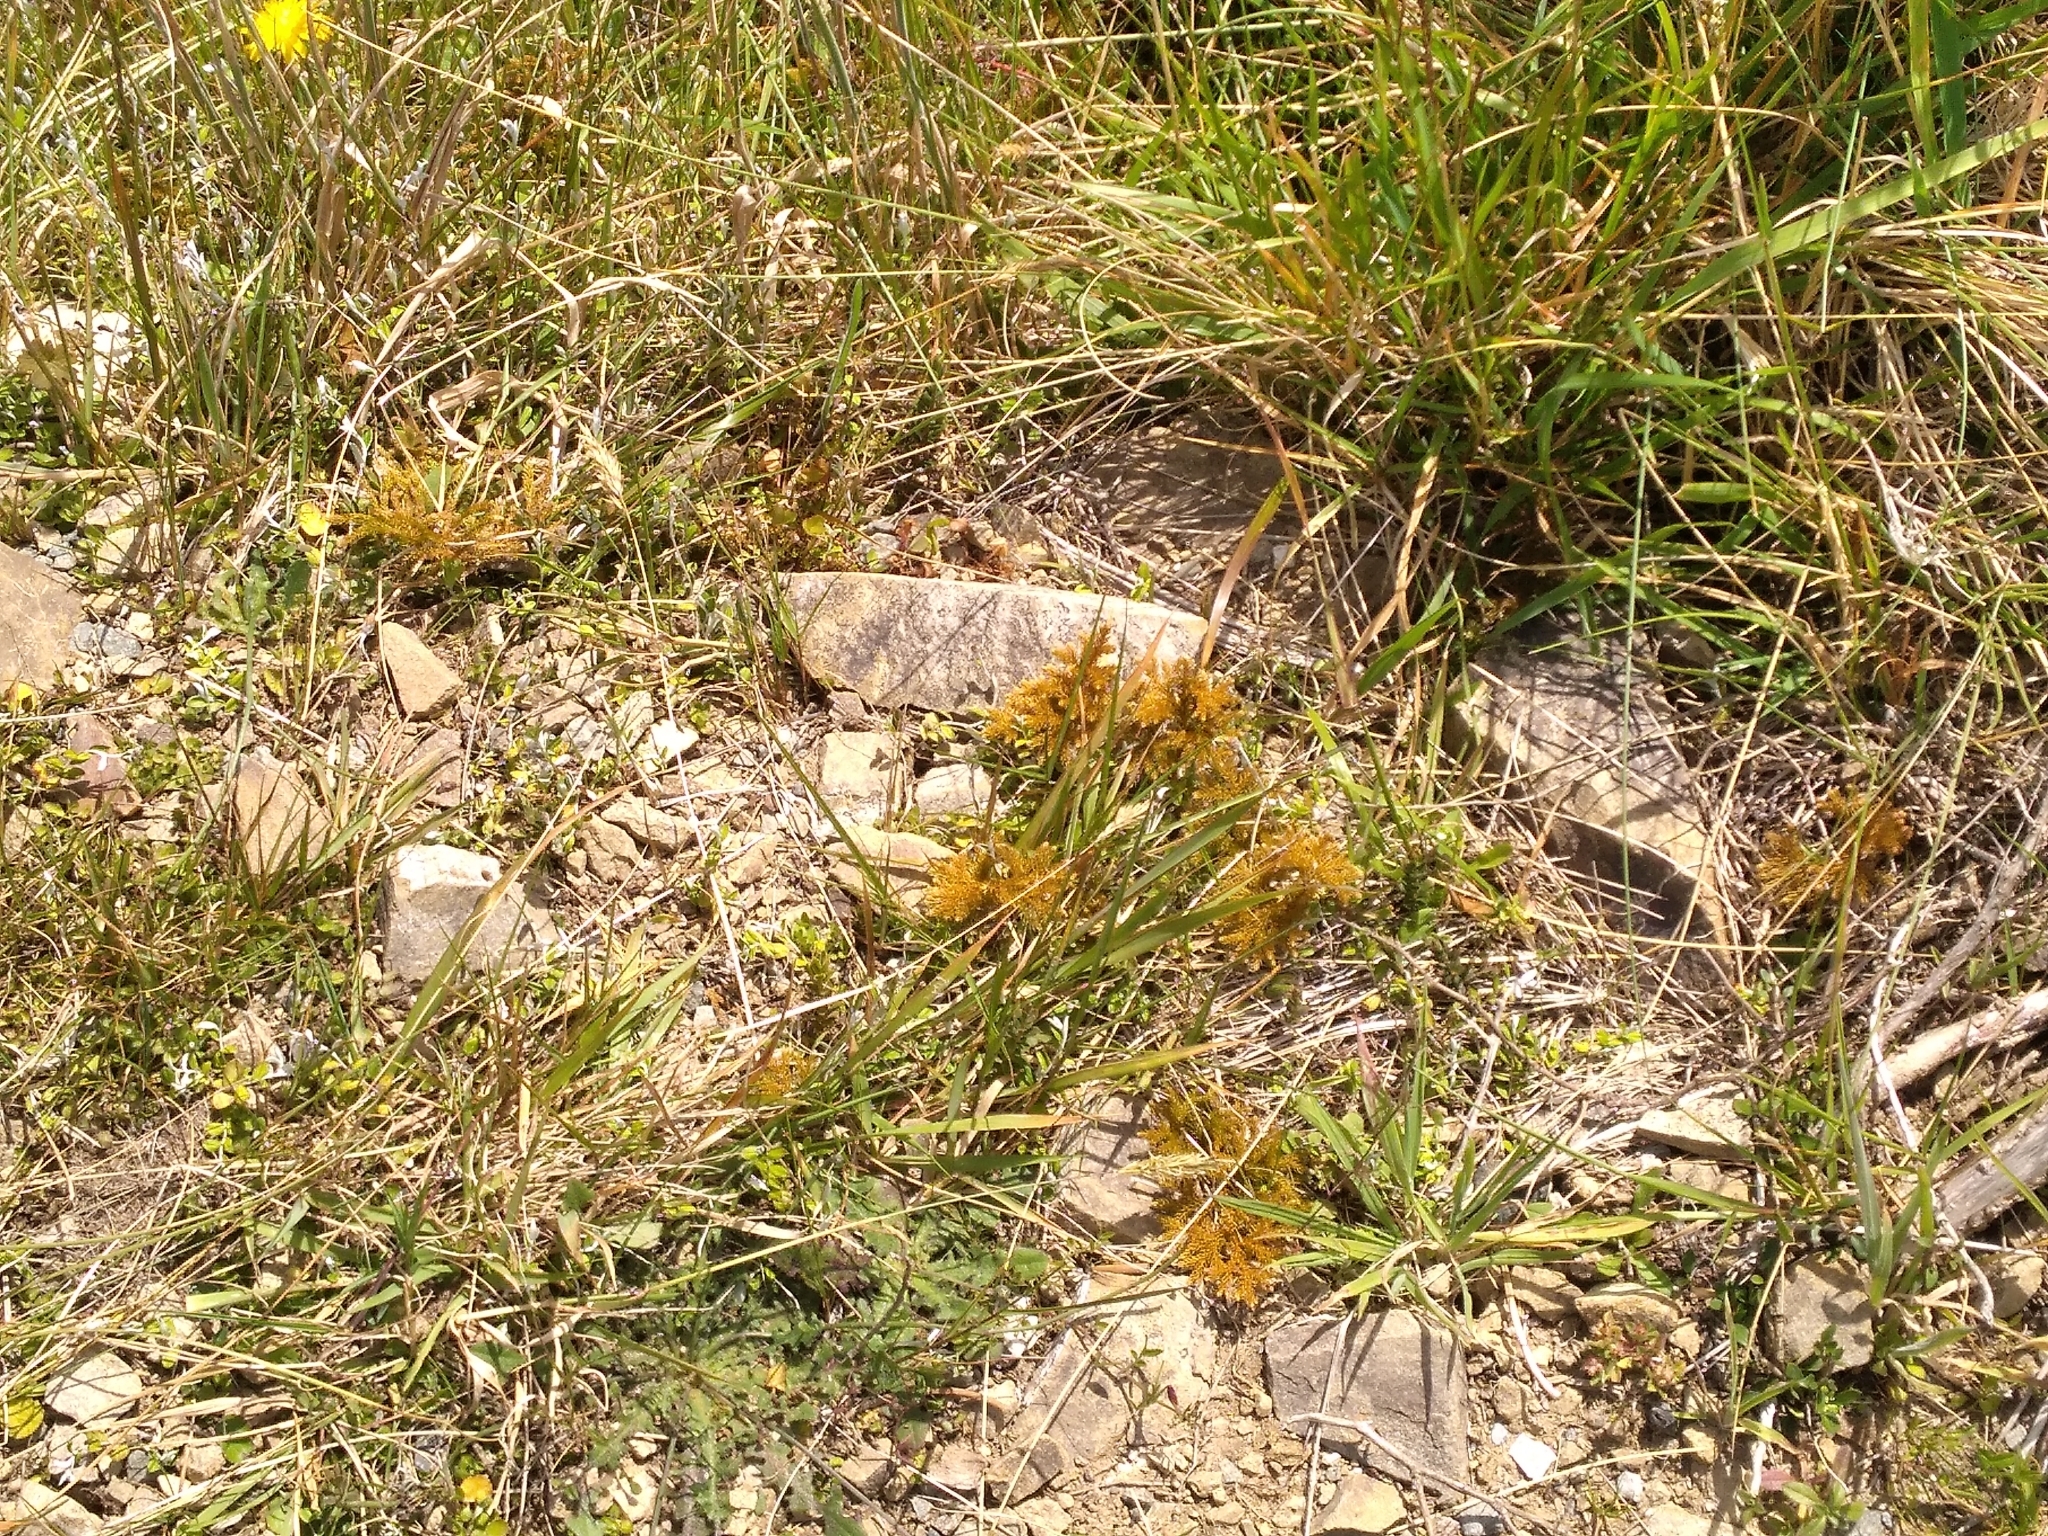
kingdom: Plantae
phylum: Tracheophyta
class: Lycopodiopsida
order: Lycopodiales
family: Lycopodiaceae
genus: Austrolycopodium
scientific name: Austrolycopodium fastigiatum
